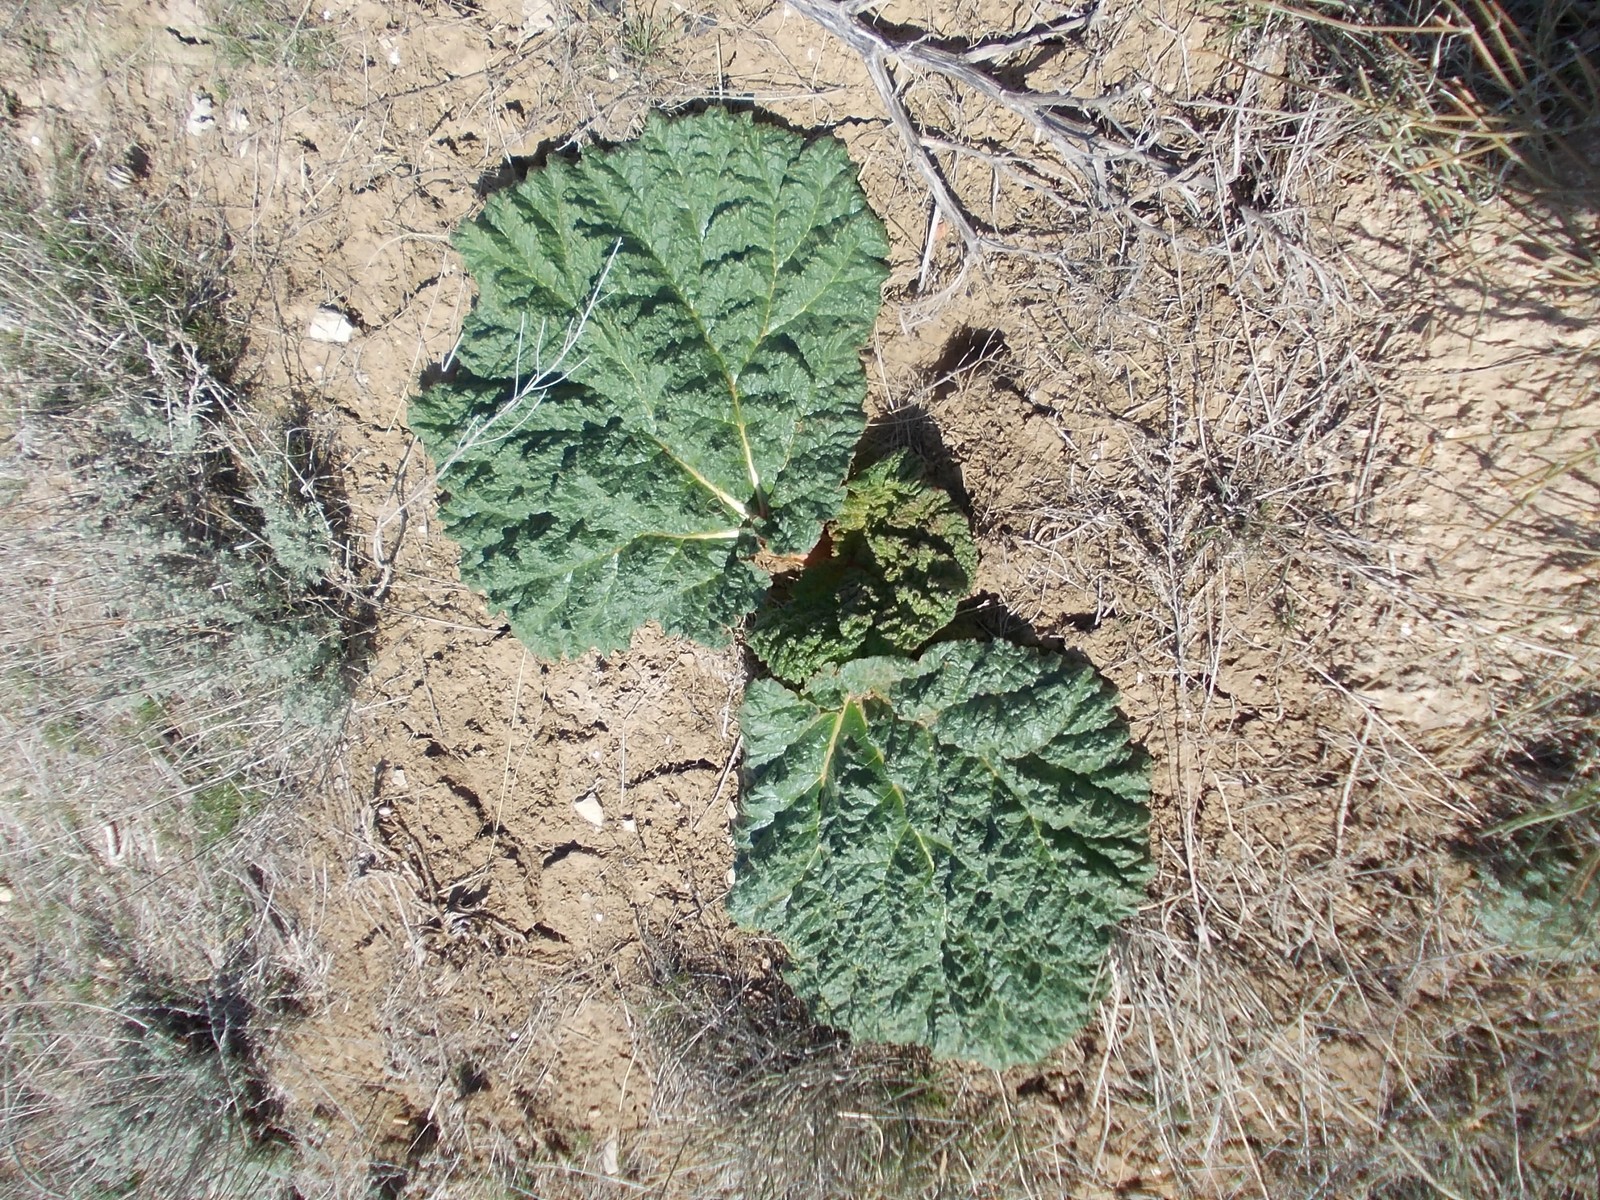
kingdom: Plantae
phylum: Tracheophyta
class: Magnoliopsida
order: Caryophyllales
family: Polygonaceae
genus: Rheum
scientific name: Rheum tataricum
